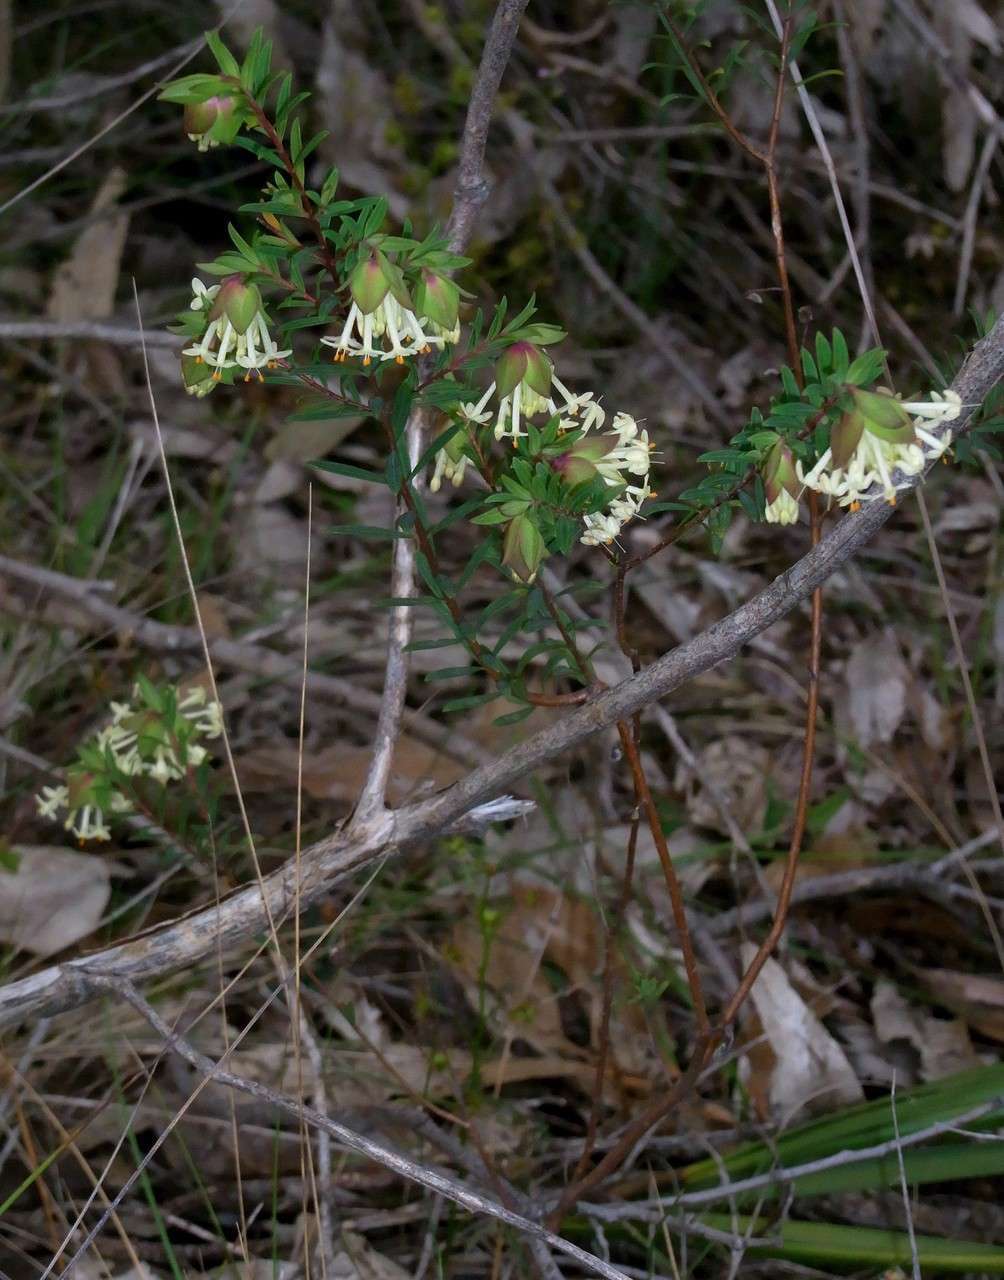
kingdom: Plantae
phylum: Tracheophyta
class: Magnoliopsida
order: Malvales
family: Thymelaeaceae
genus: Pimelea
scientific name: Pimelea linifolia
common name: Queen-of-the-bush
